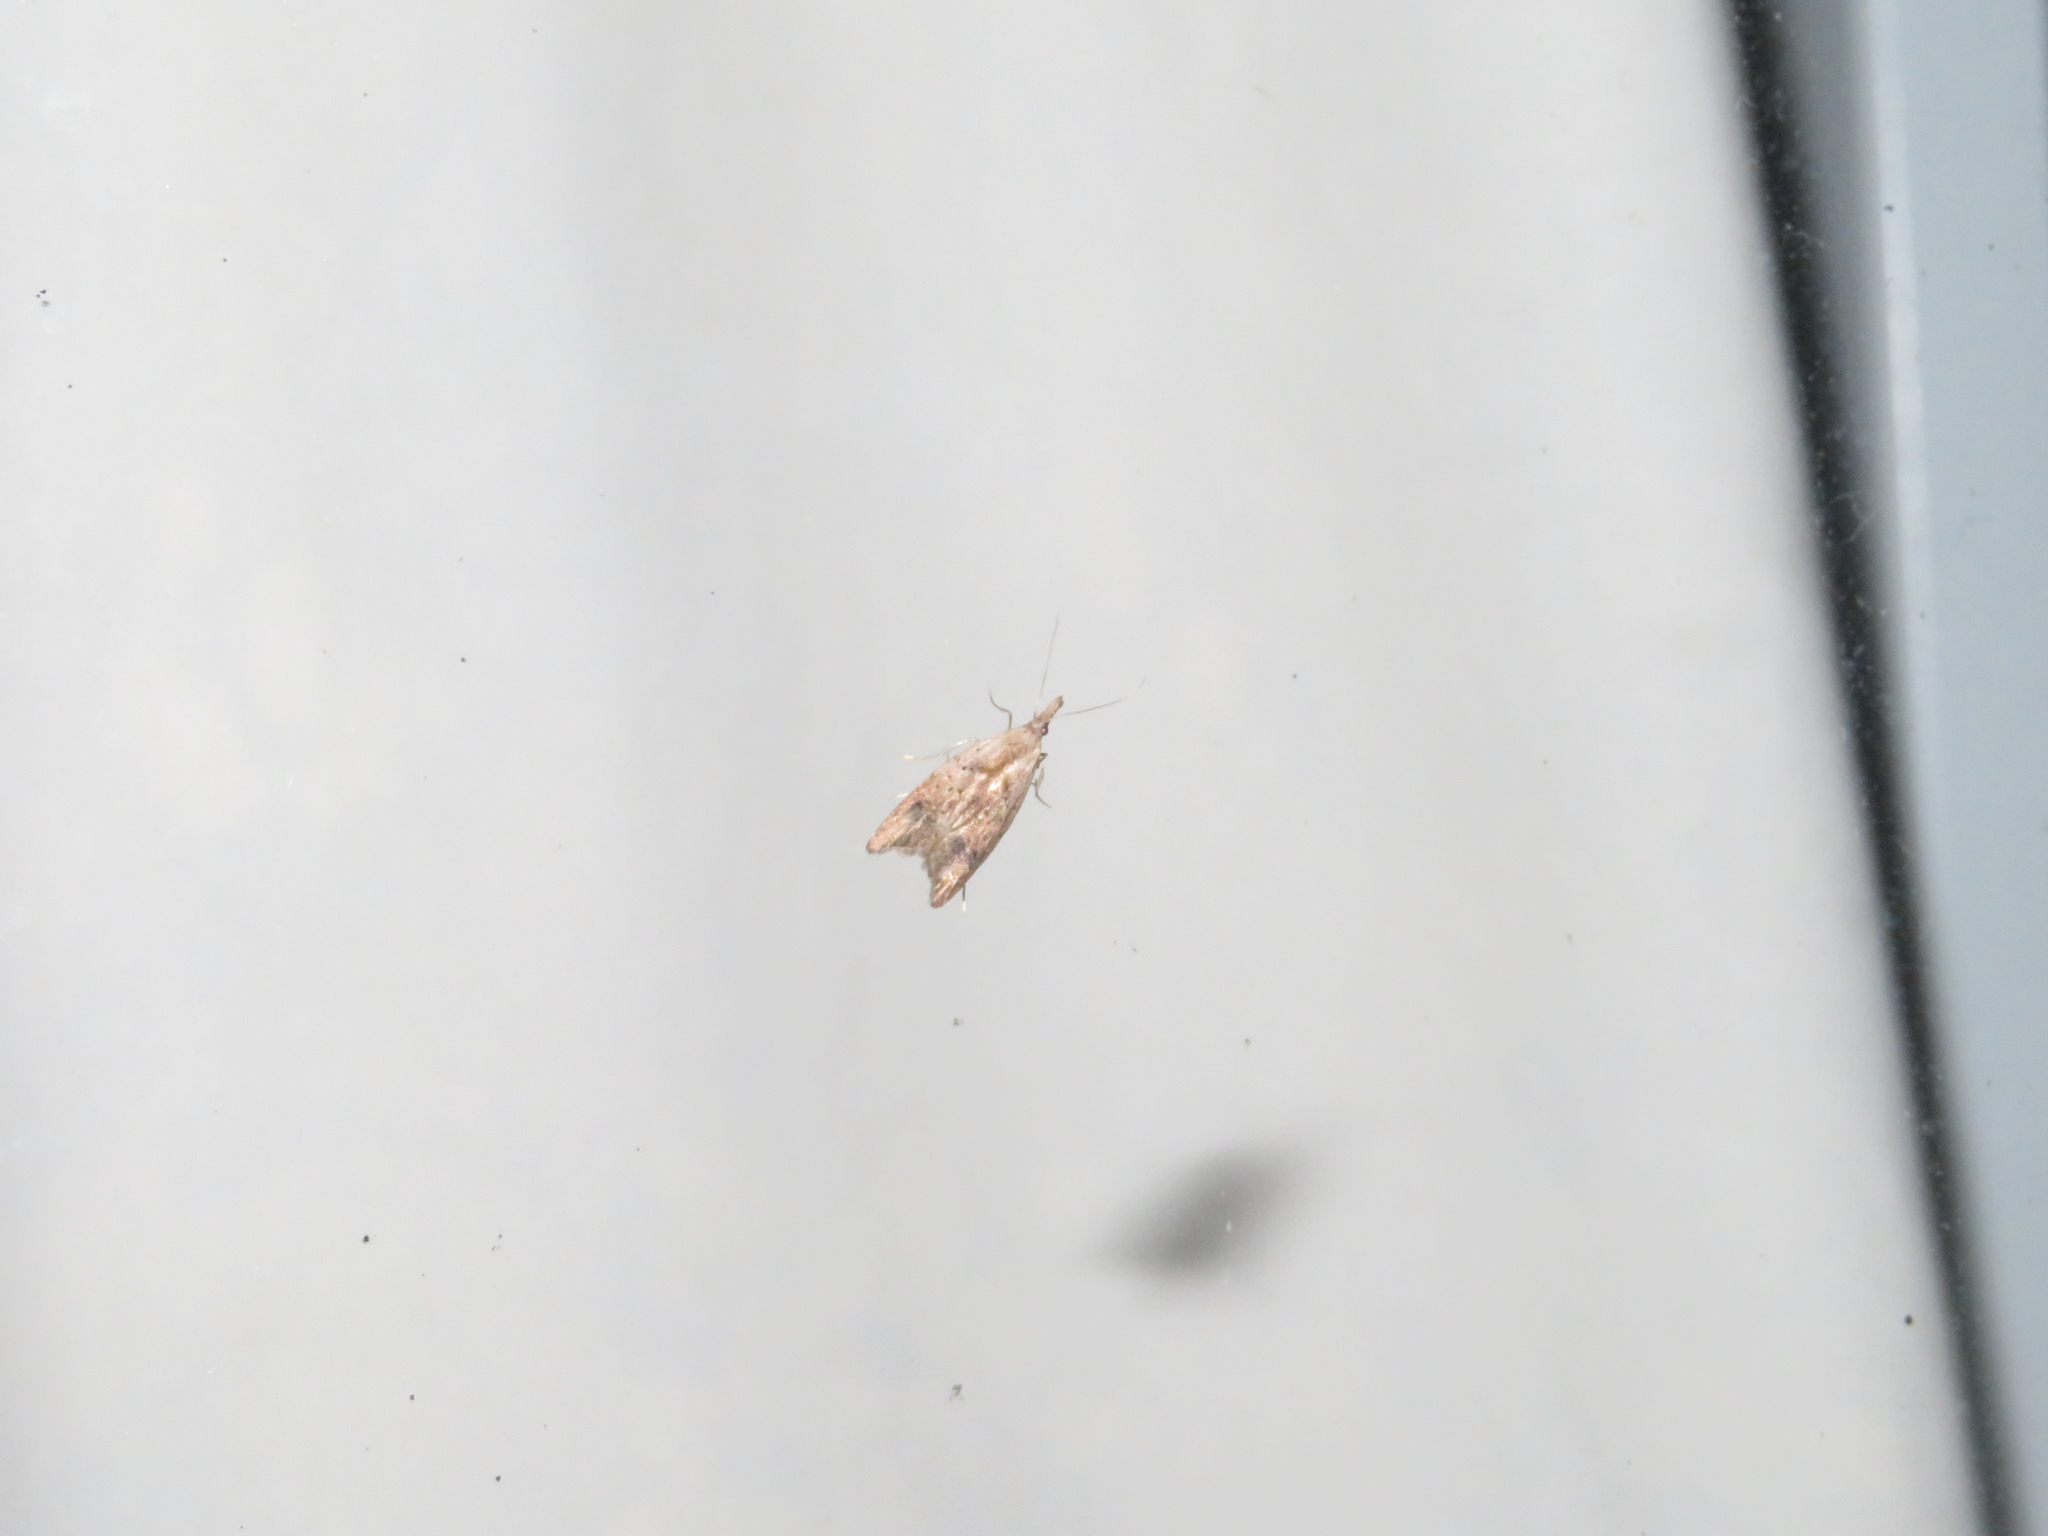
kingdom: Animalia
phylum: Arthropoda
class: Insecta
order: Lepidoptera
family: Carposinidae
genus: Carposina
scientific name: Carposina rubophaga
